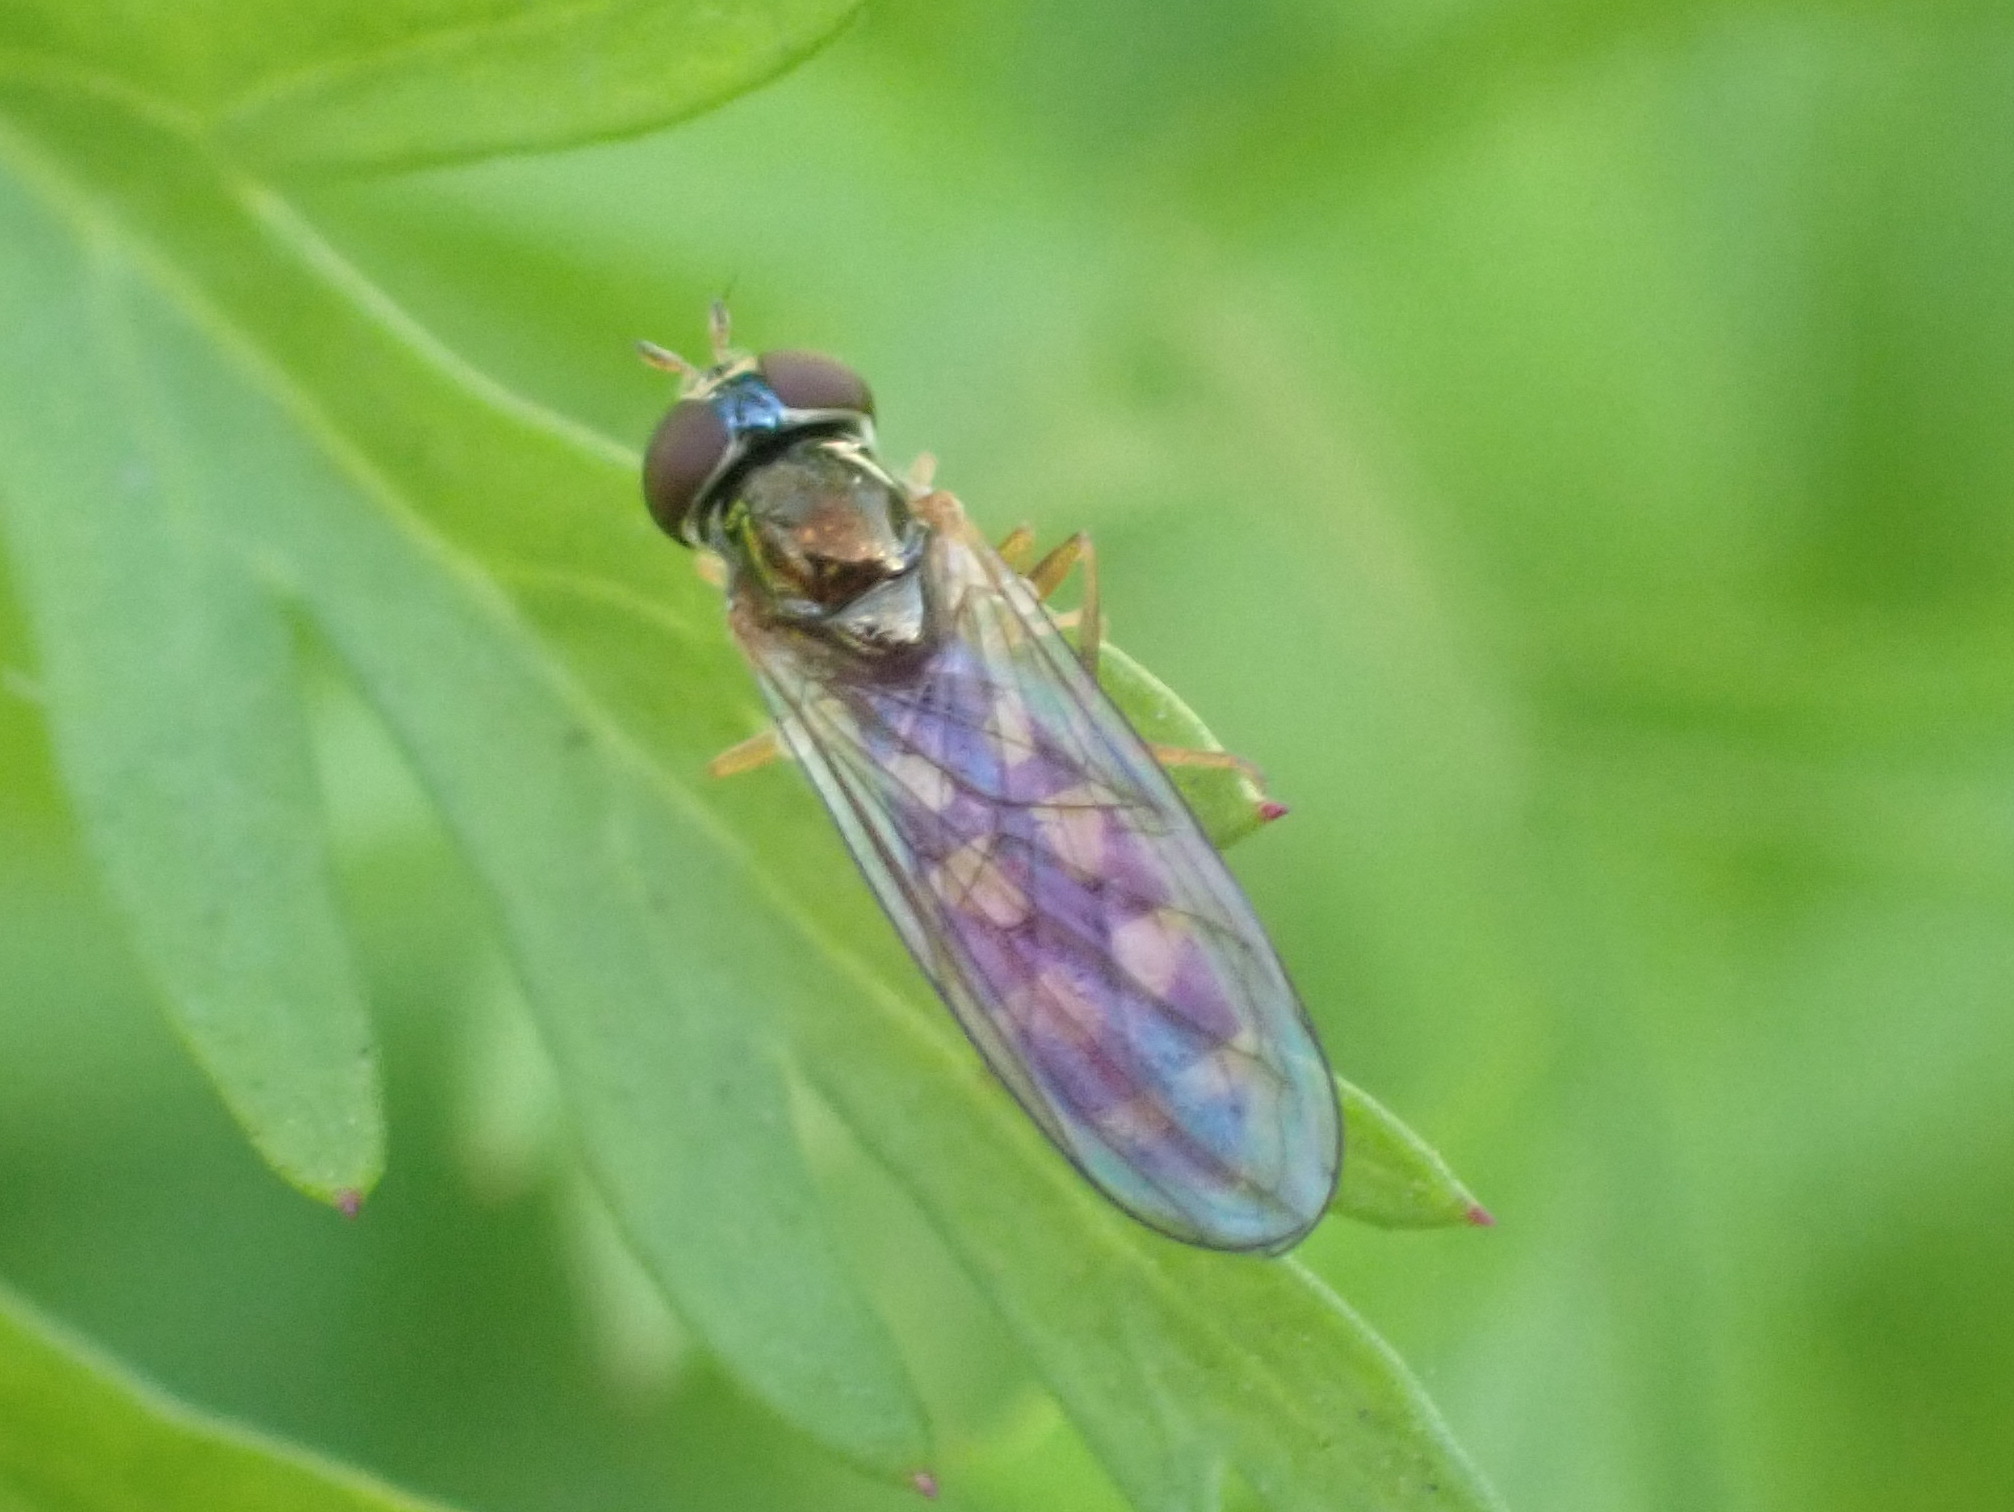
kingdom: Animalia
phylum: Arthropoda
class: Insecta
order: Diptera
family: Syrphidae
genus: Melanostoma
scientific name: Melanostoma mellina
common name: Hover fly
